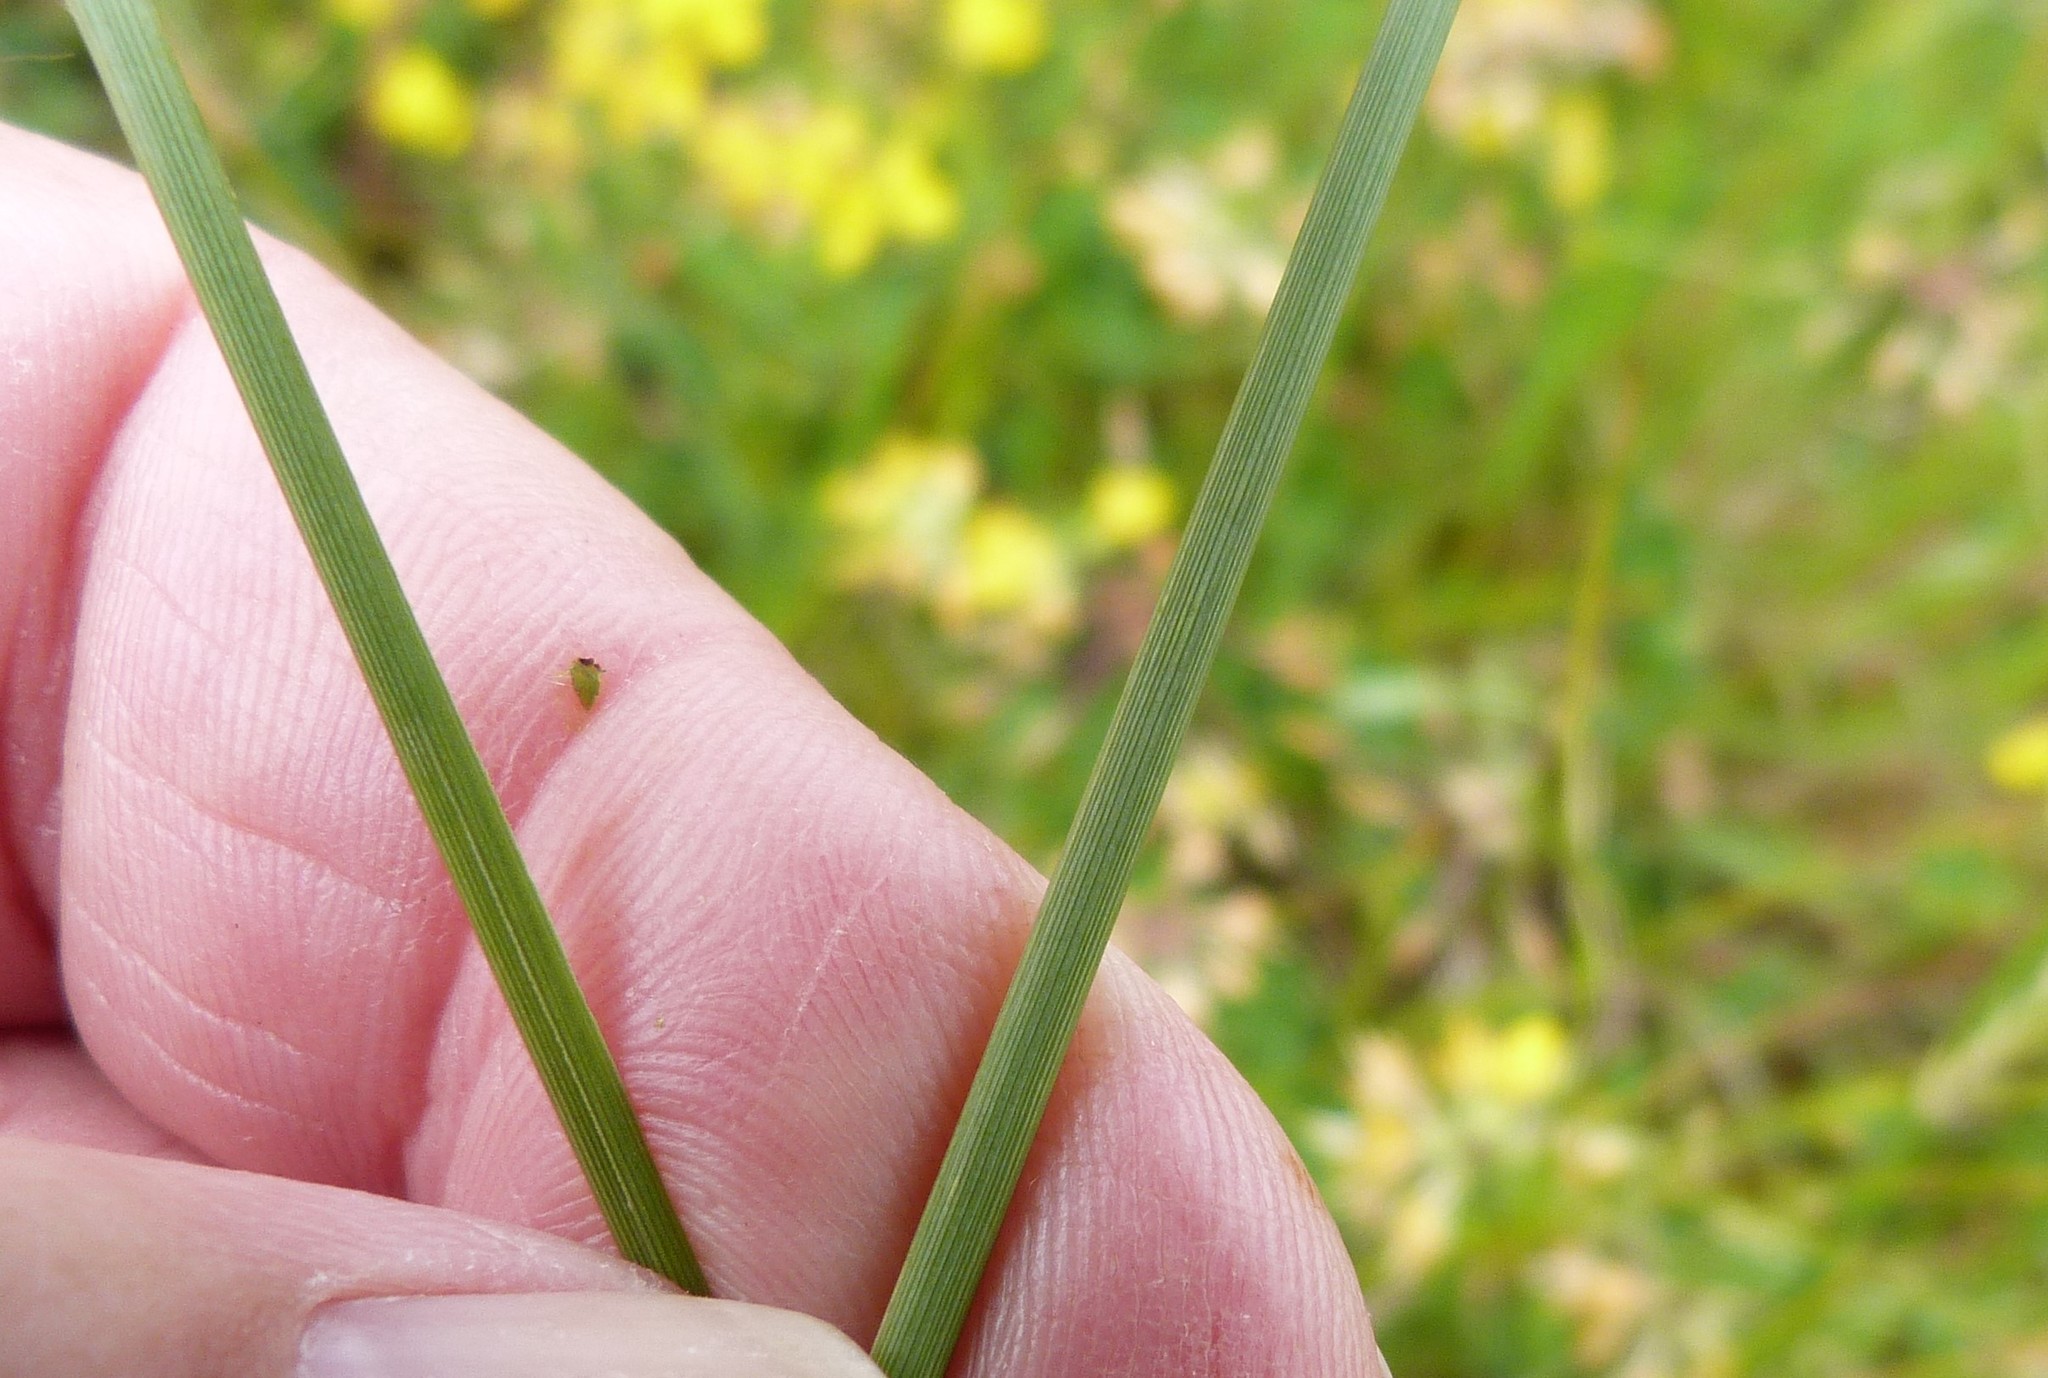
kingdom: Plantae
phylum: Tracheophyta
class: Liliopsida
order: Poales
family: Juncaceae
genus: Juncus
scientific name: Juncus sarophorus
